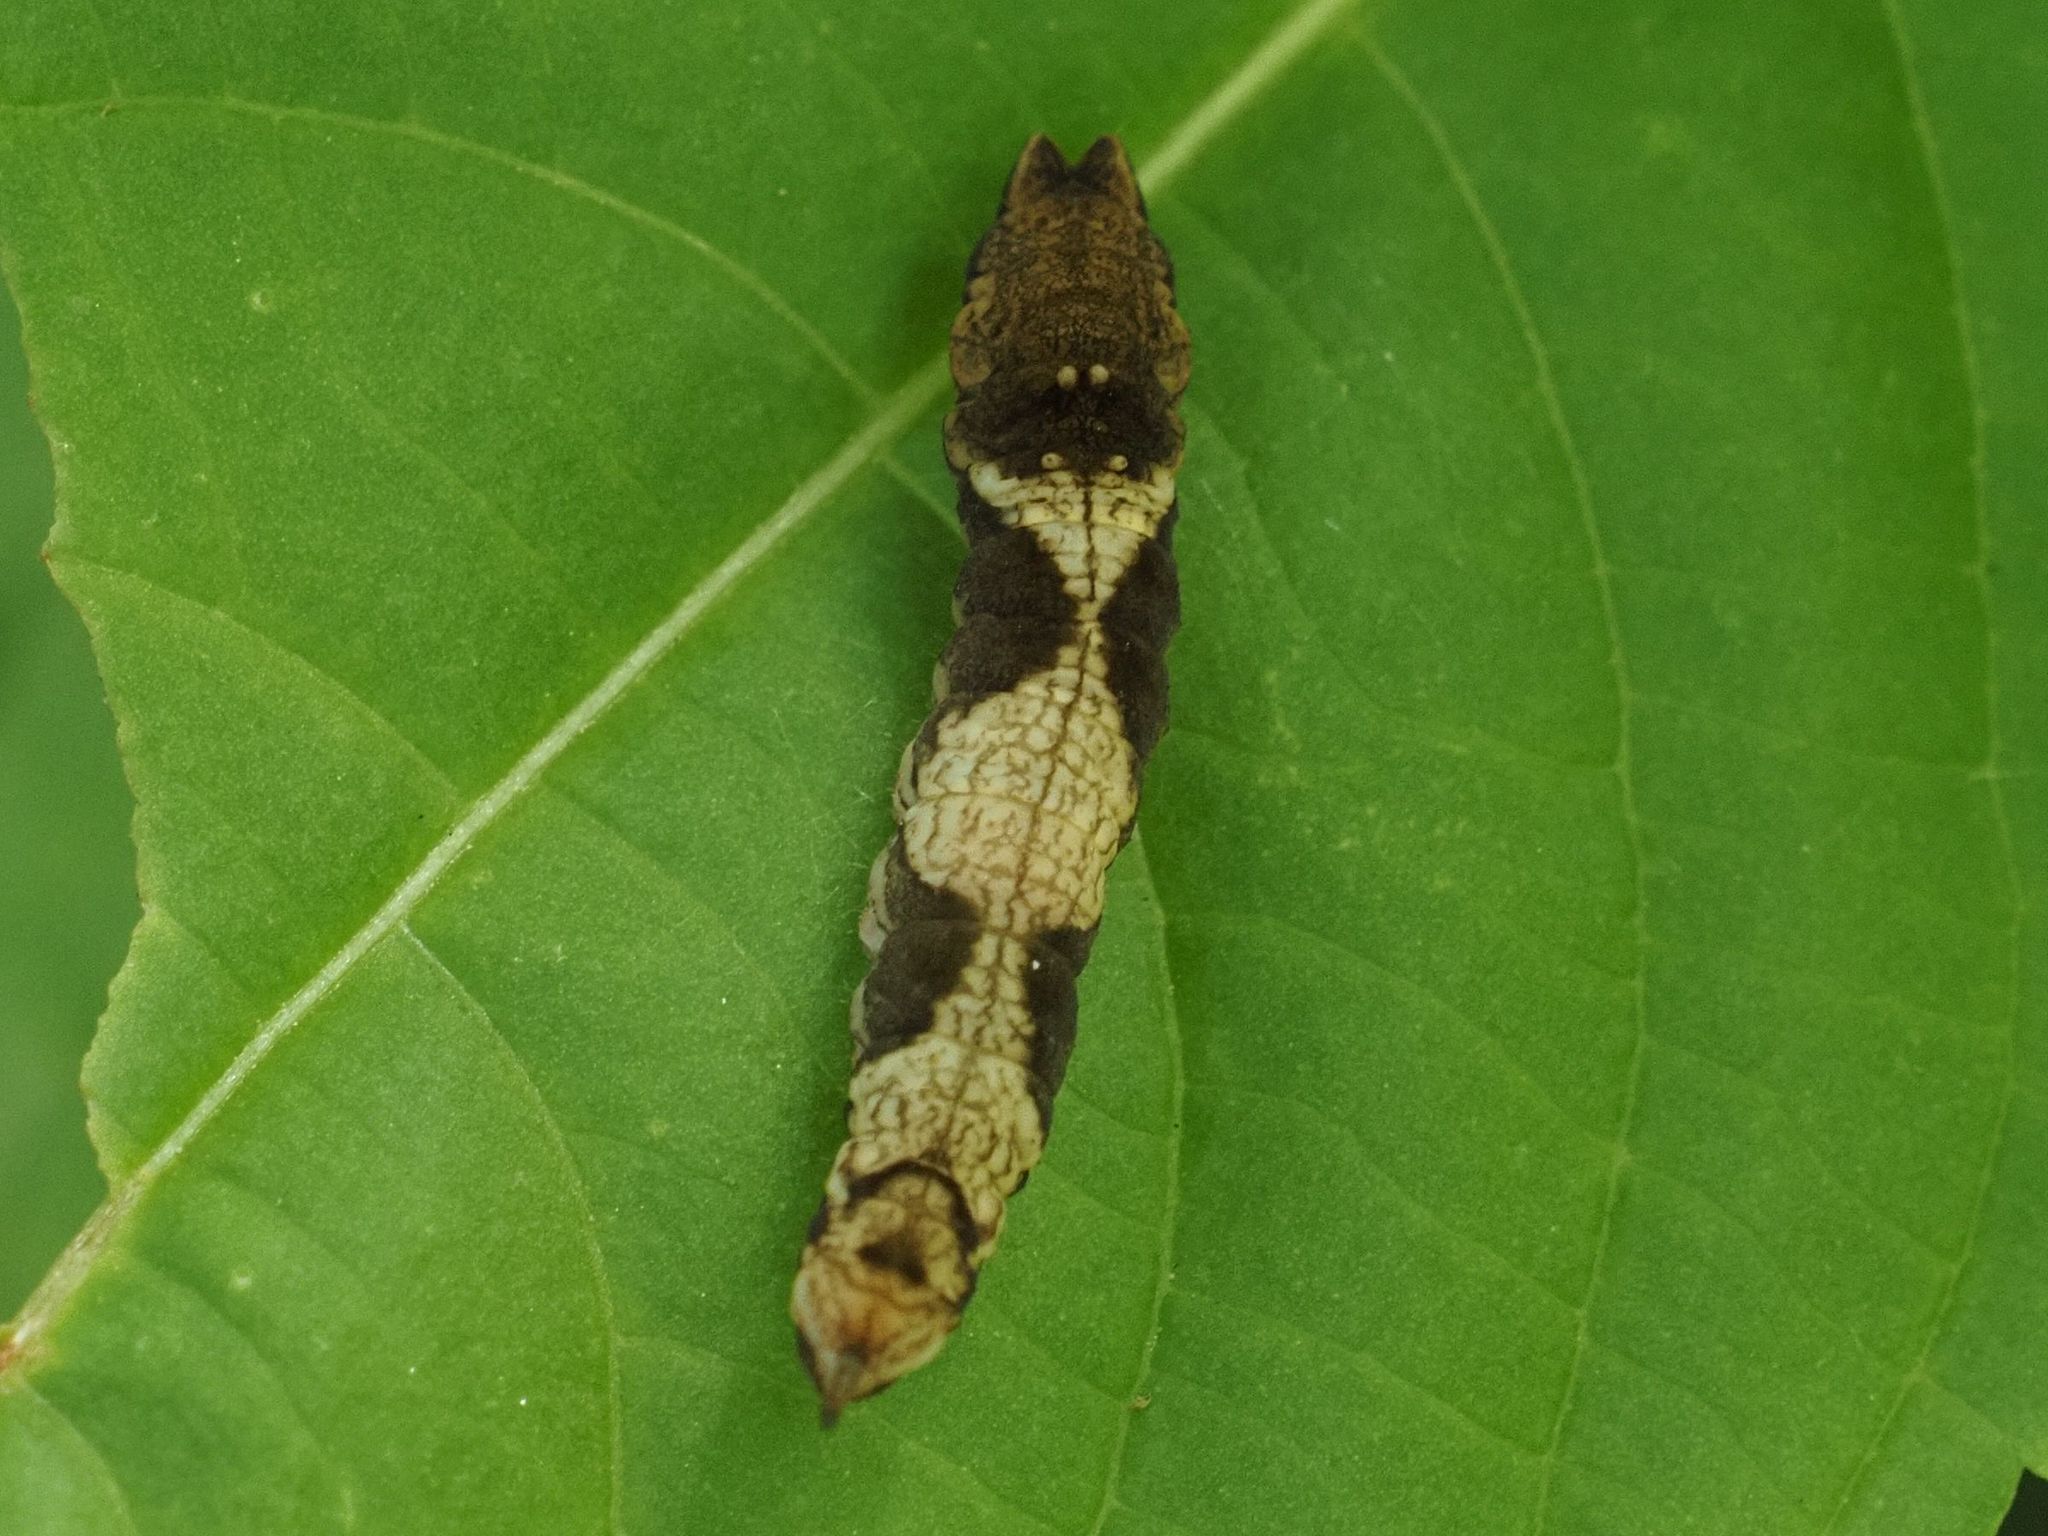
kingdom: Animalia
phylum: Arthropoda
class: Insecta
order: Lepidoptera
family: Drepanidae
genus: Sabra
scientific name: Sabra harpagula
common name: Scarce hook-tip
